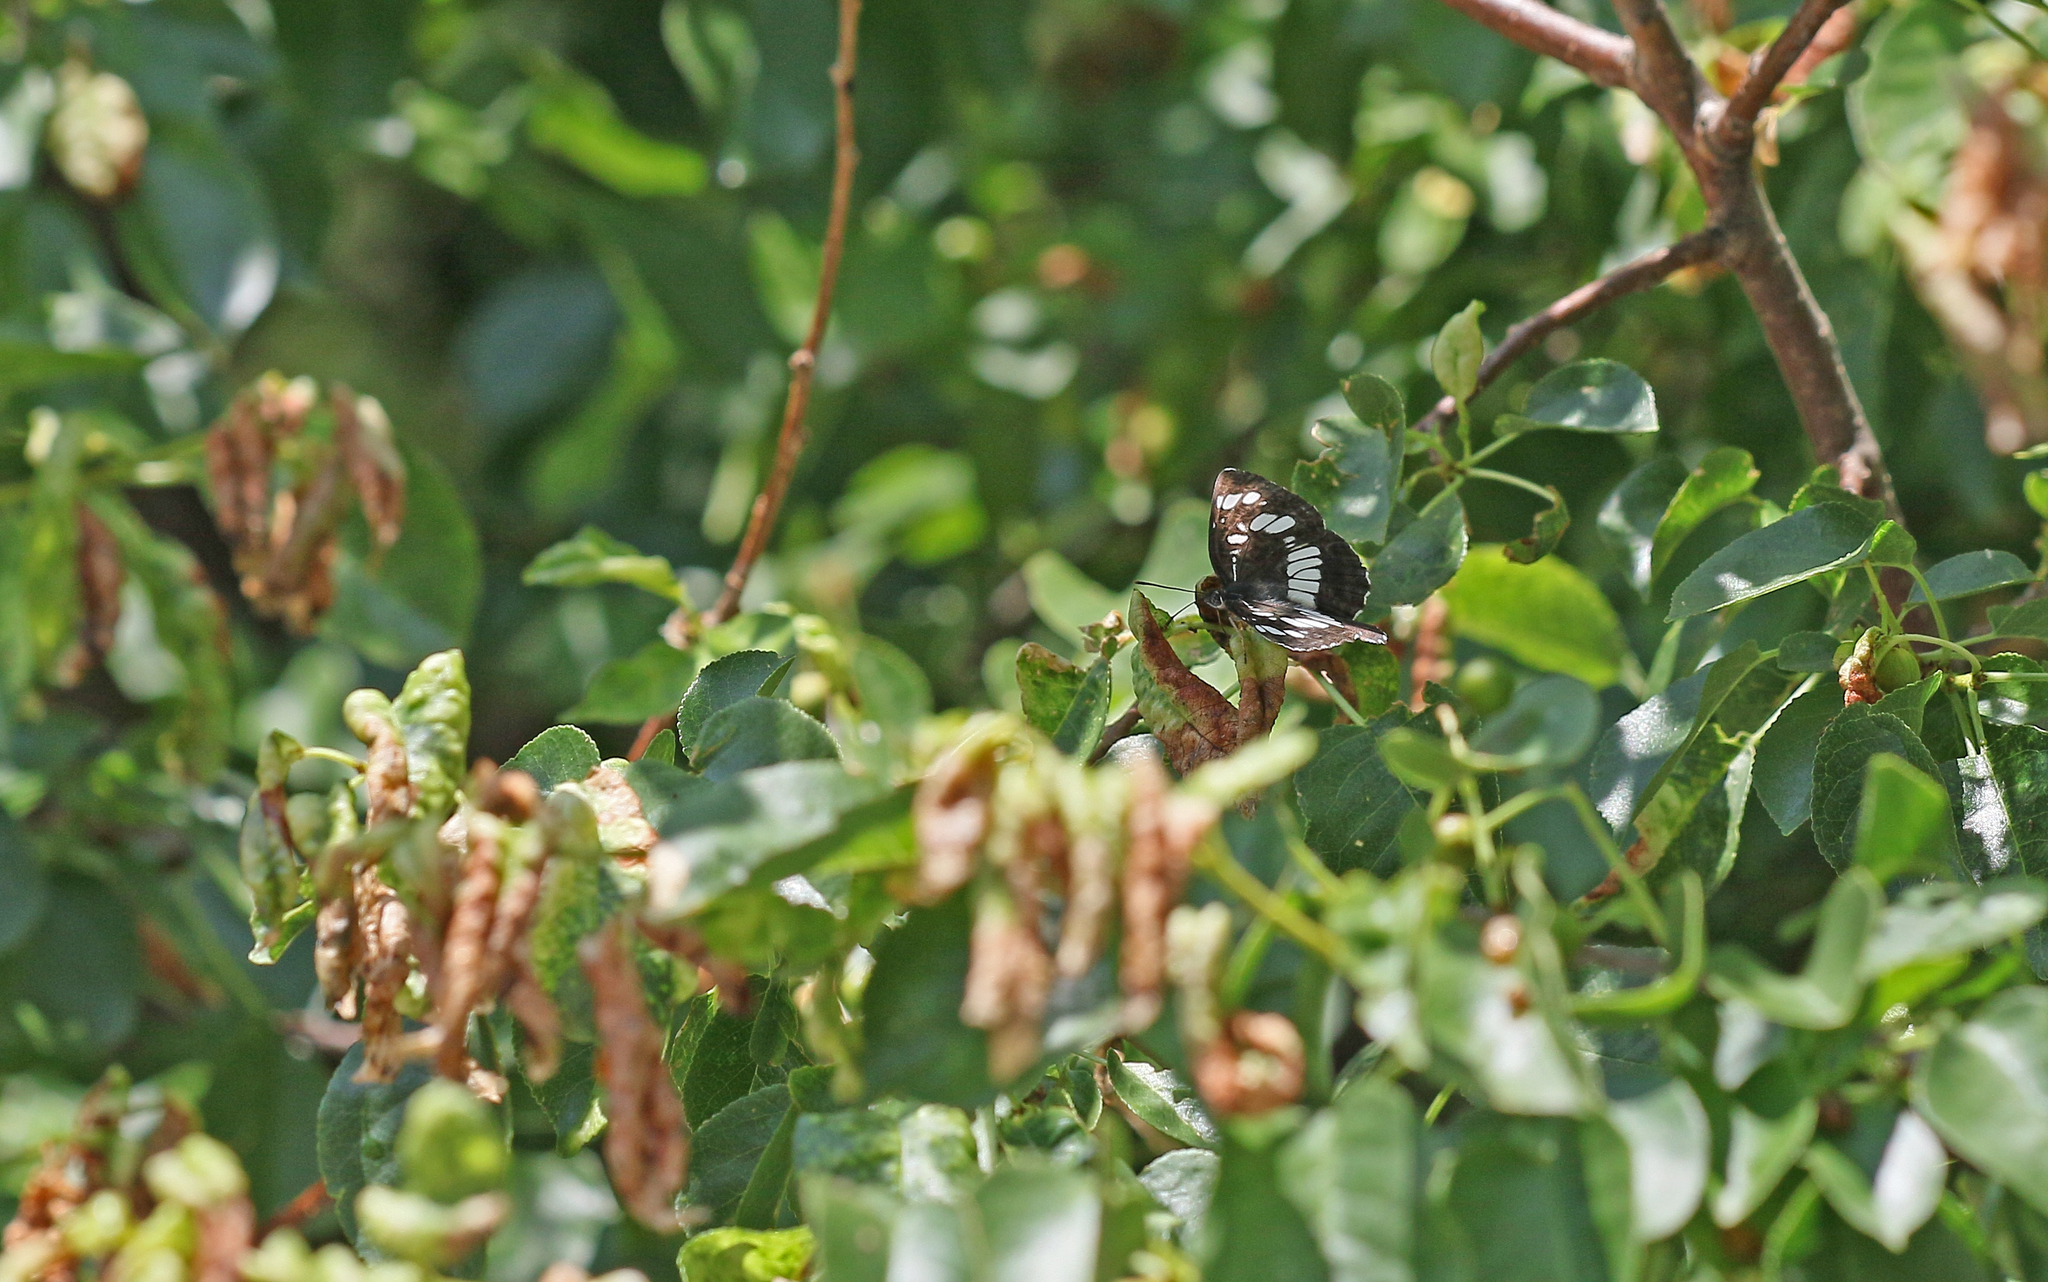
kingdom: Animalia
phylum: Arthropoda
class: Insecta
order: Lepidoptera
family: Nymphalidae
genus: Neptis
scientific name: Neptis rivularis
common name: Hungarian glider
